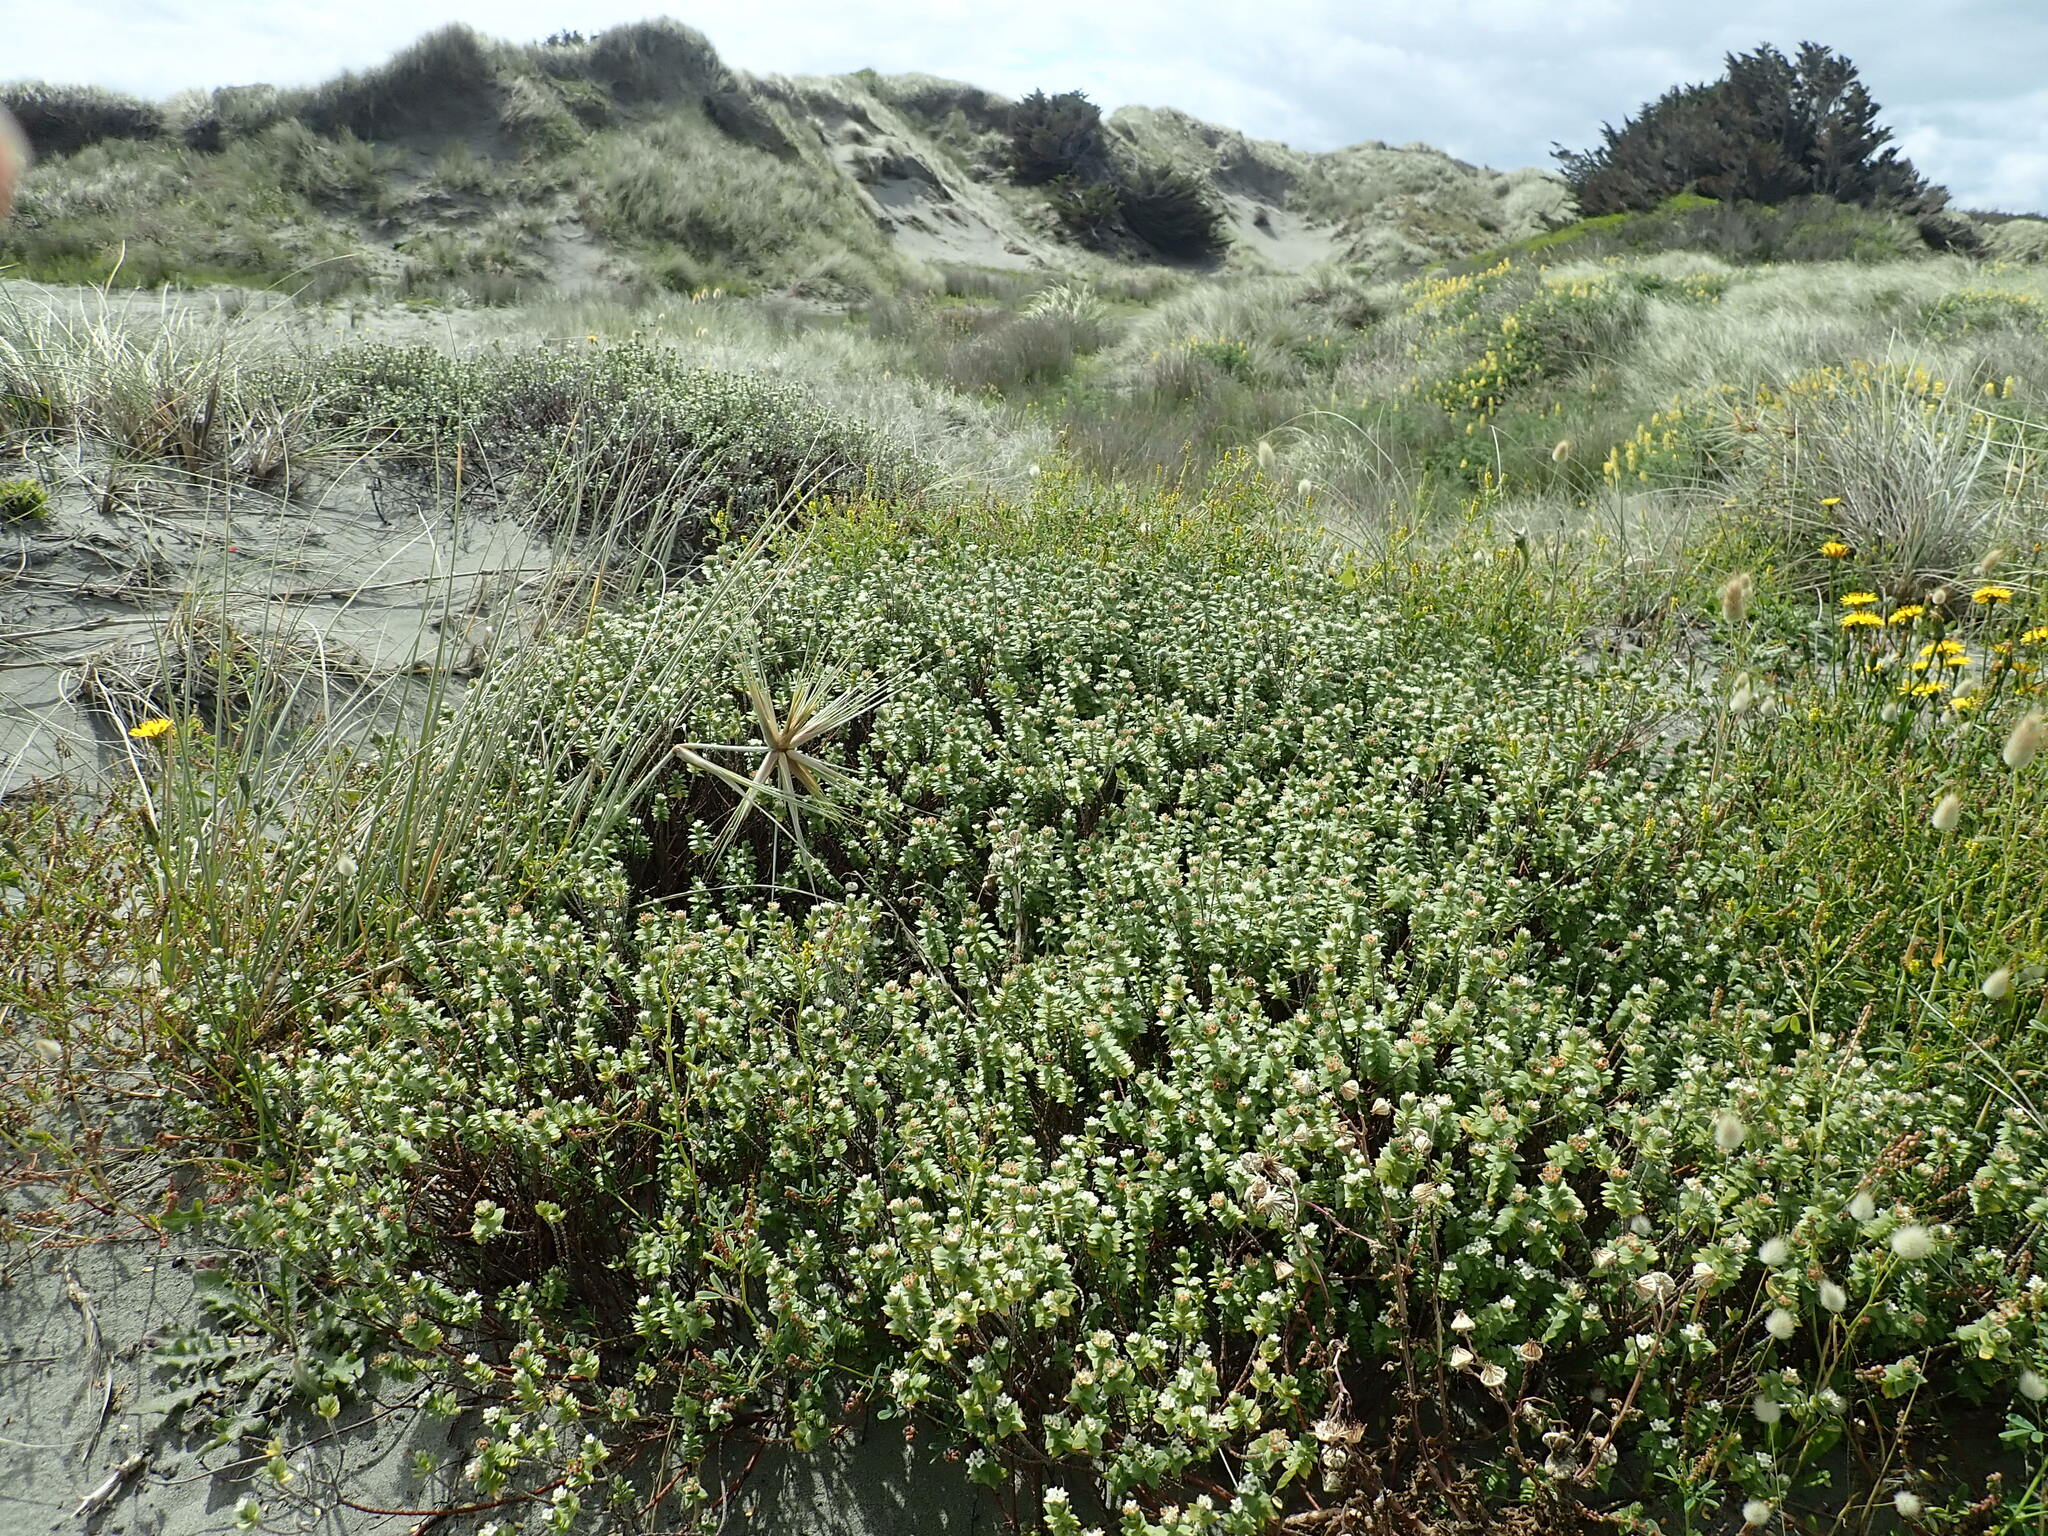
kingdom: Plantae
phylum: Tracheophyta
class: Magnoliopsida
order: Malvales
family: Thymelaeaceae
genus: Pimelea
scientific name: Pimelea villosa
